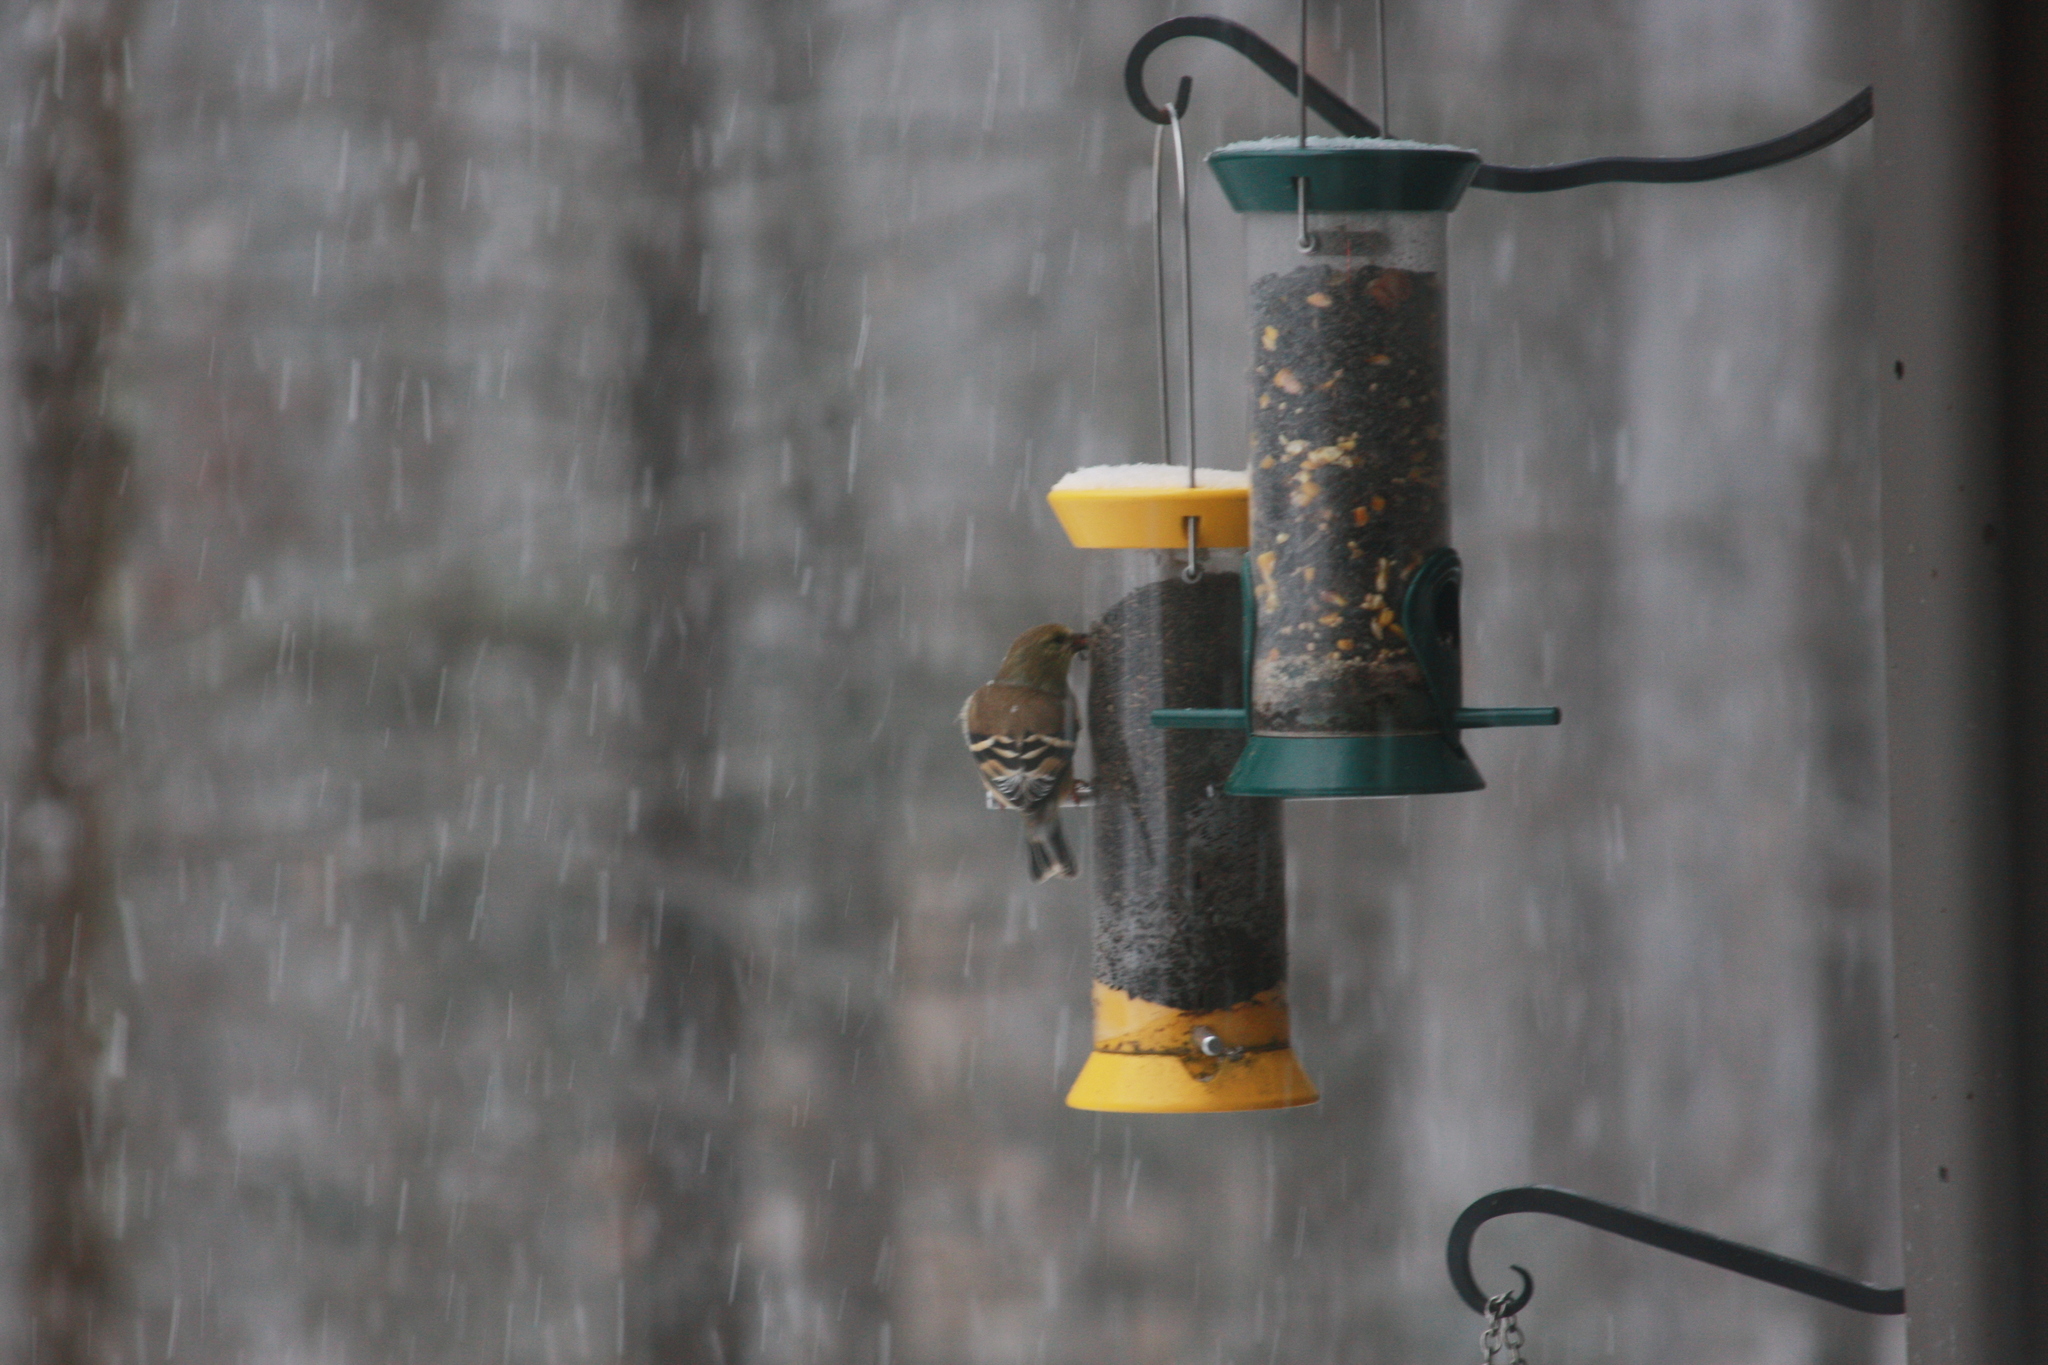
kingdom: Animalia
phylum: Chordata
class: Aves
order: Passeriformes
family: Fringillidae
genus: Spinus
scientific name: Spinus tristis
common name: American goldfinch
